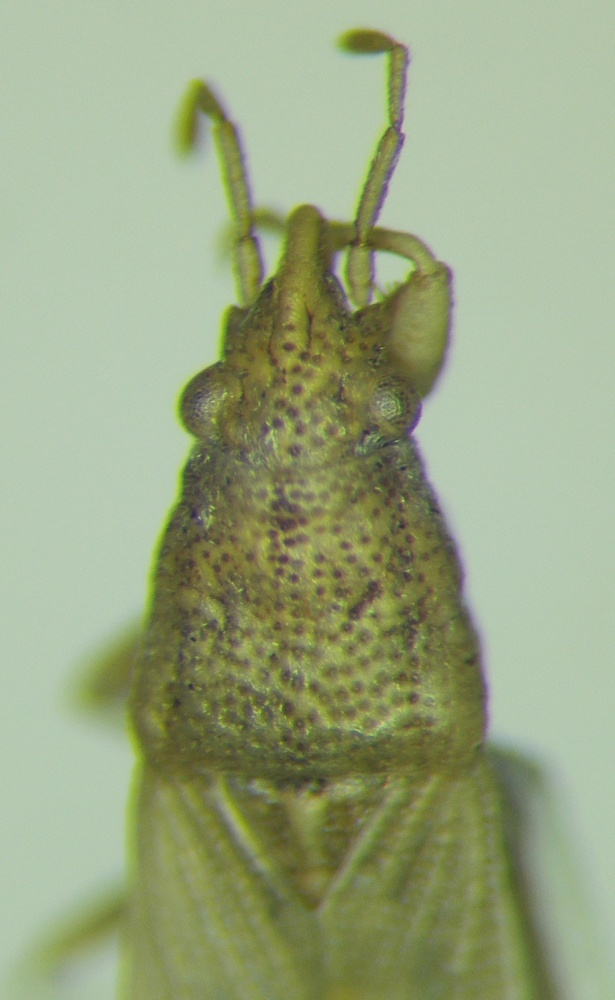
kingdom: Animalia
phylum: Arthropoda
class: Insecta
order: Hemiptera
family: Pachygronthidae
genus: Cymophyes
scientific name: Cymophyes golodnajana
